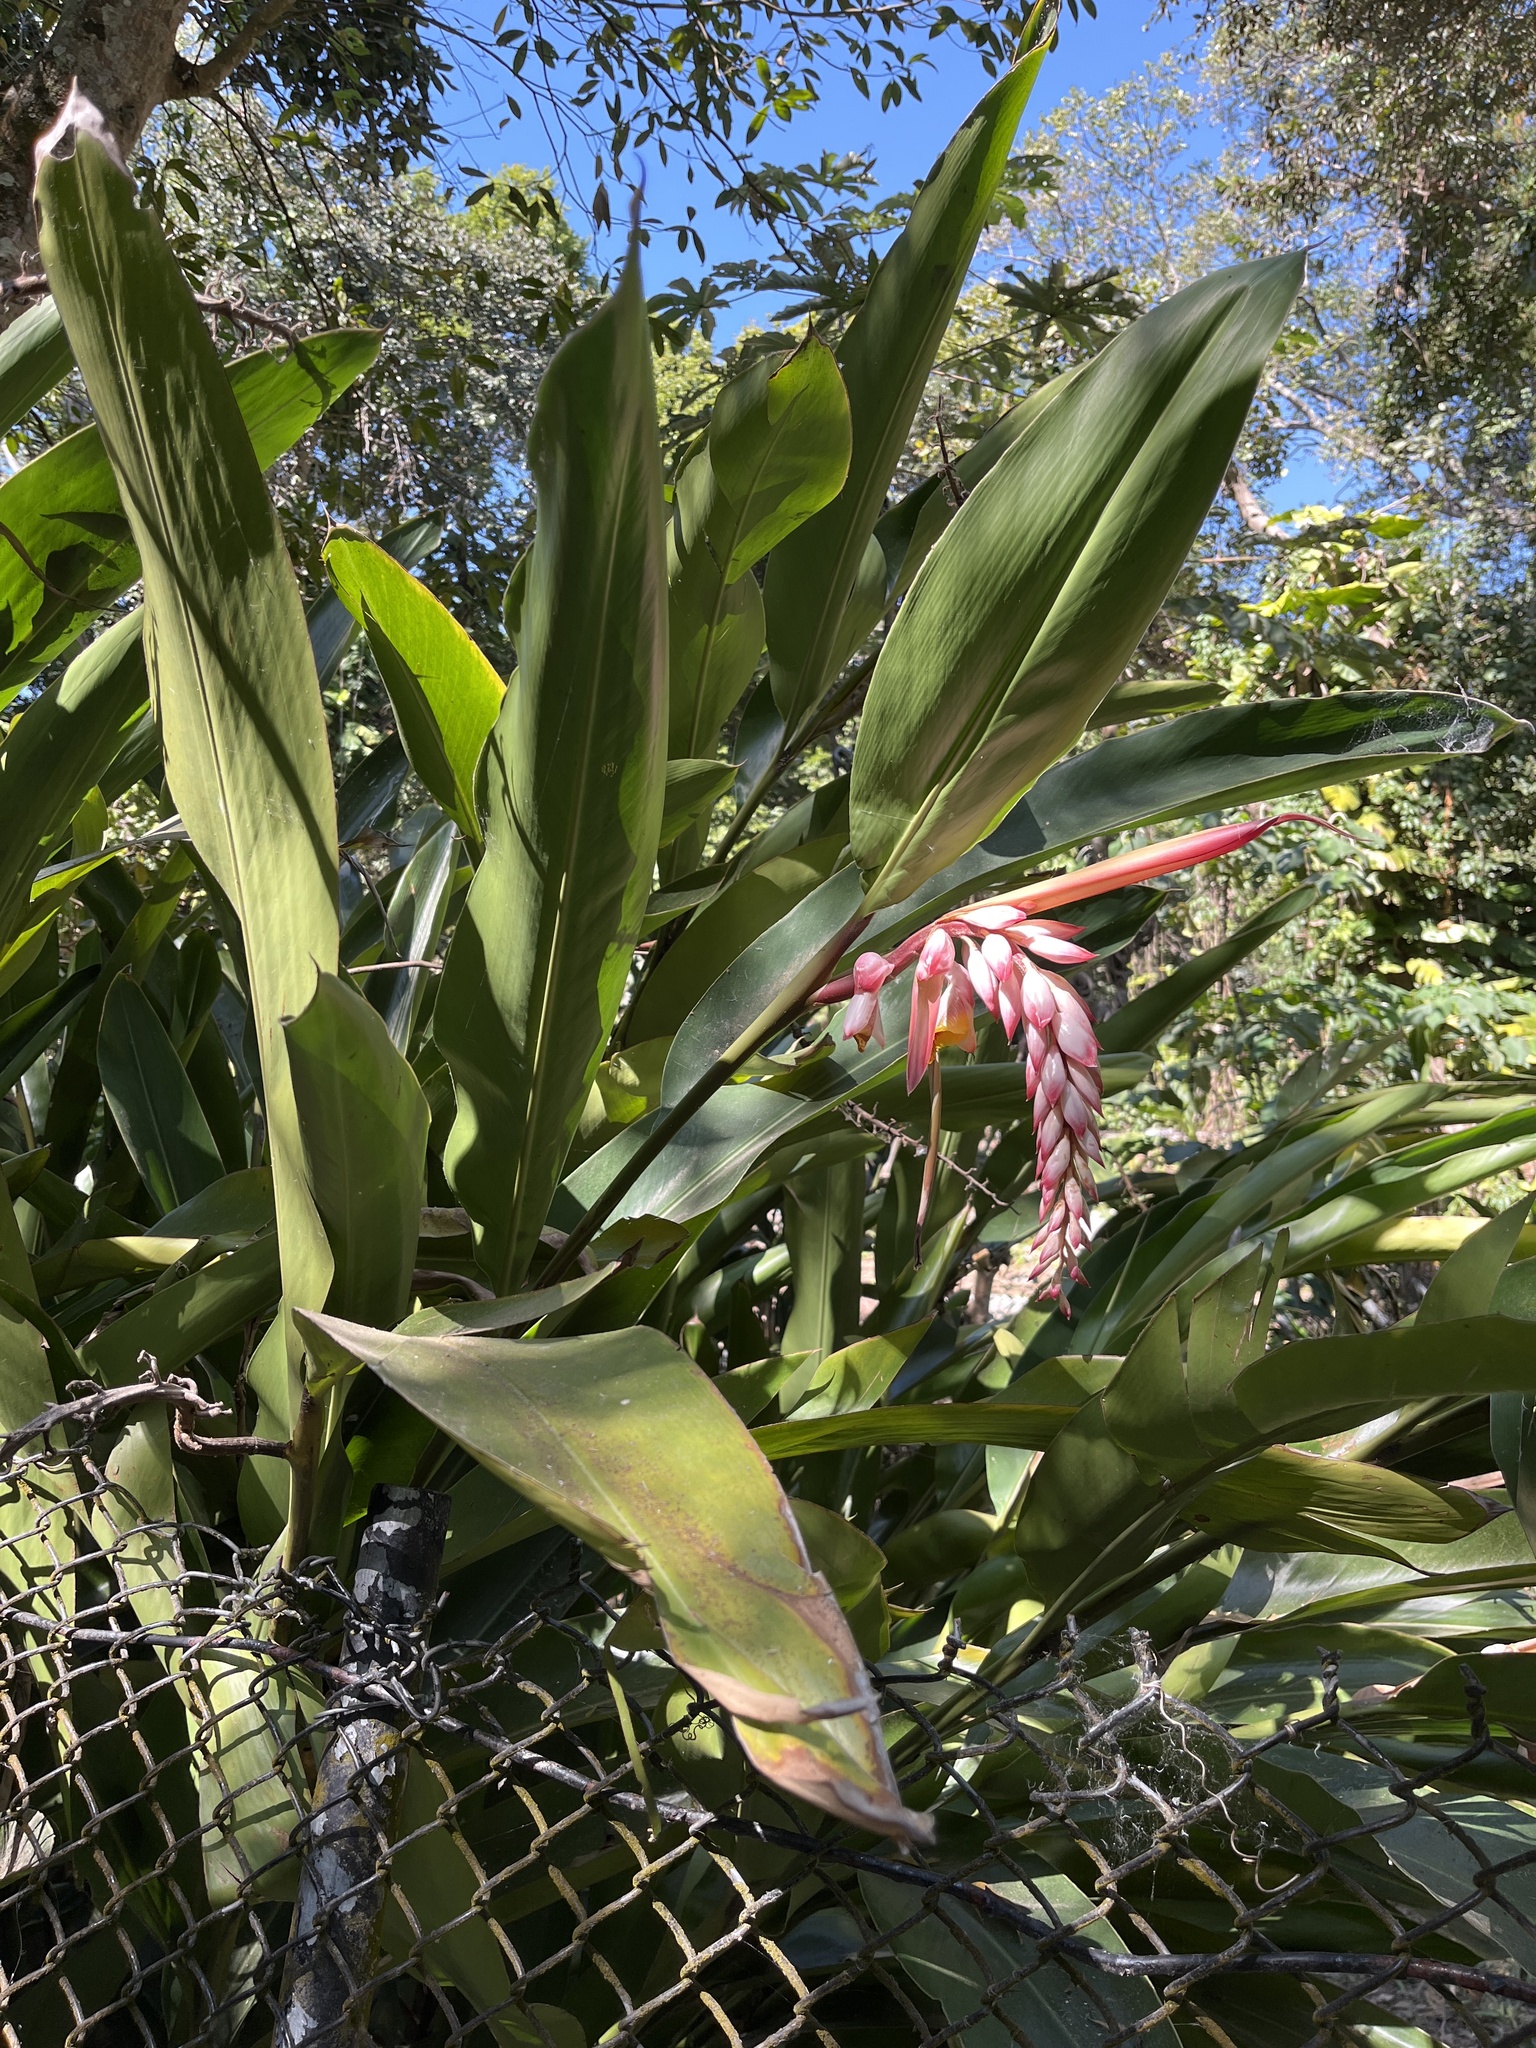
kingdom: Plantae
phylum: Tracheophyta
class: Liliopsida
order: Zingiberales
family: Zingiberaceae
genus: Alpinia
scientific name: Alpinia zerumbet
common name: Shellplant
